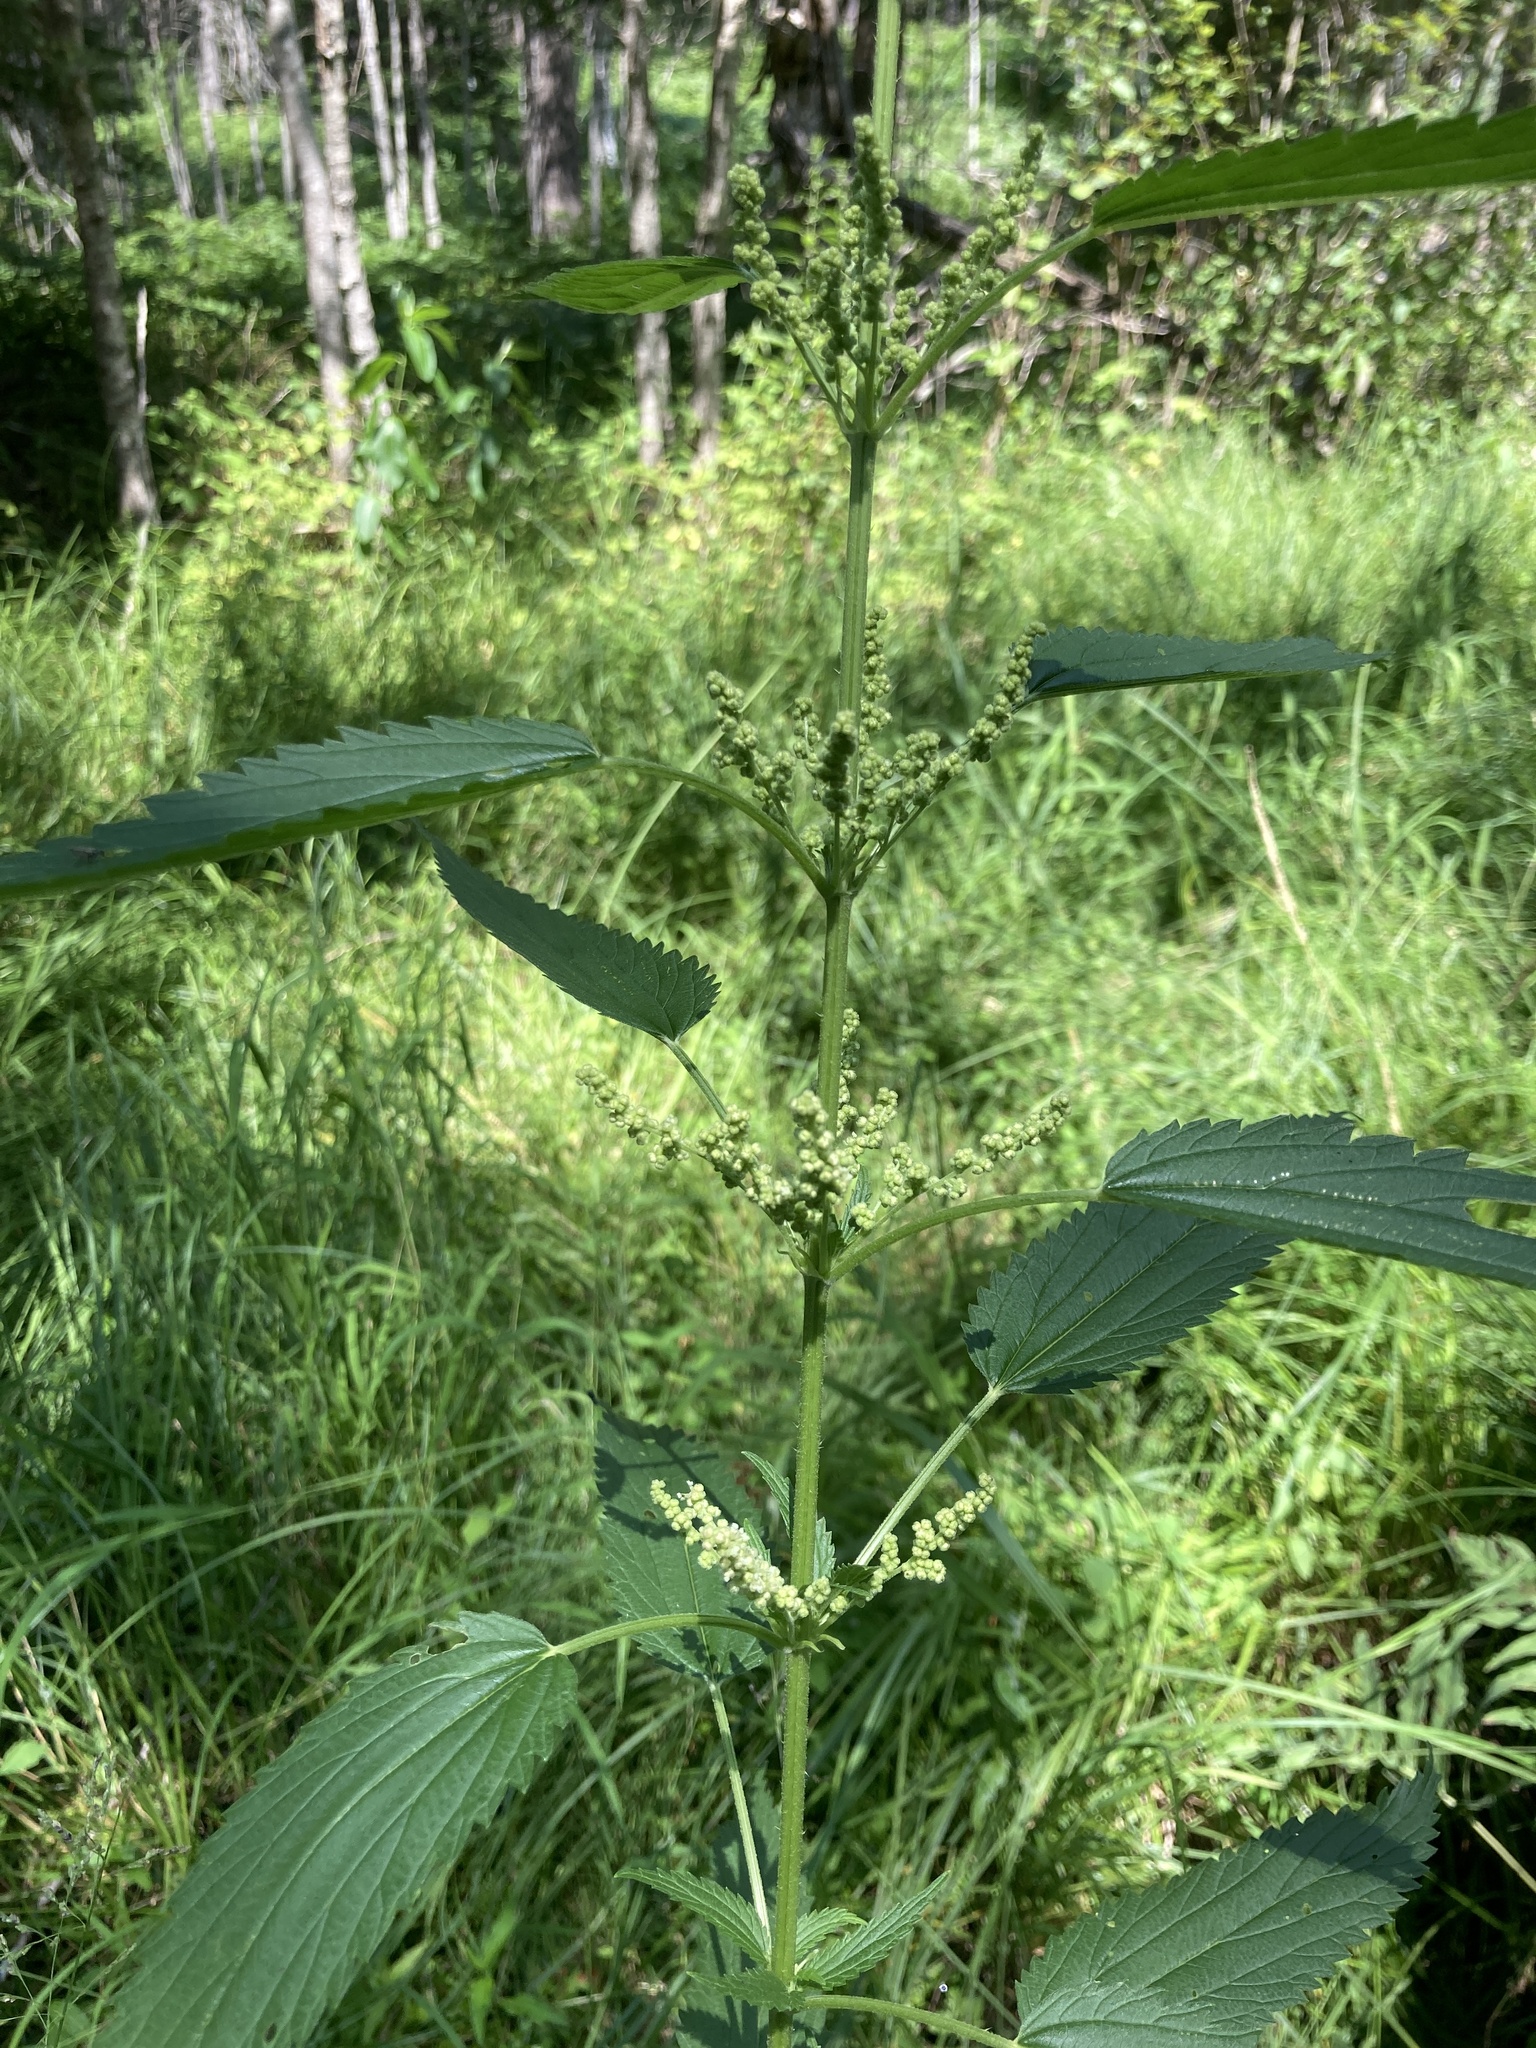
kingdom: Plantae
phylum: Tracheophyta
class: Magnoliopsida
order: Rosales
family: Urticaceae
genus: Urtica
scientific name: Urtica dioica
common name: Common nettle
